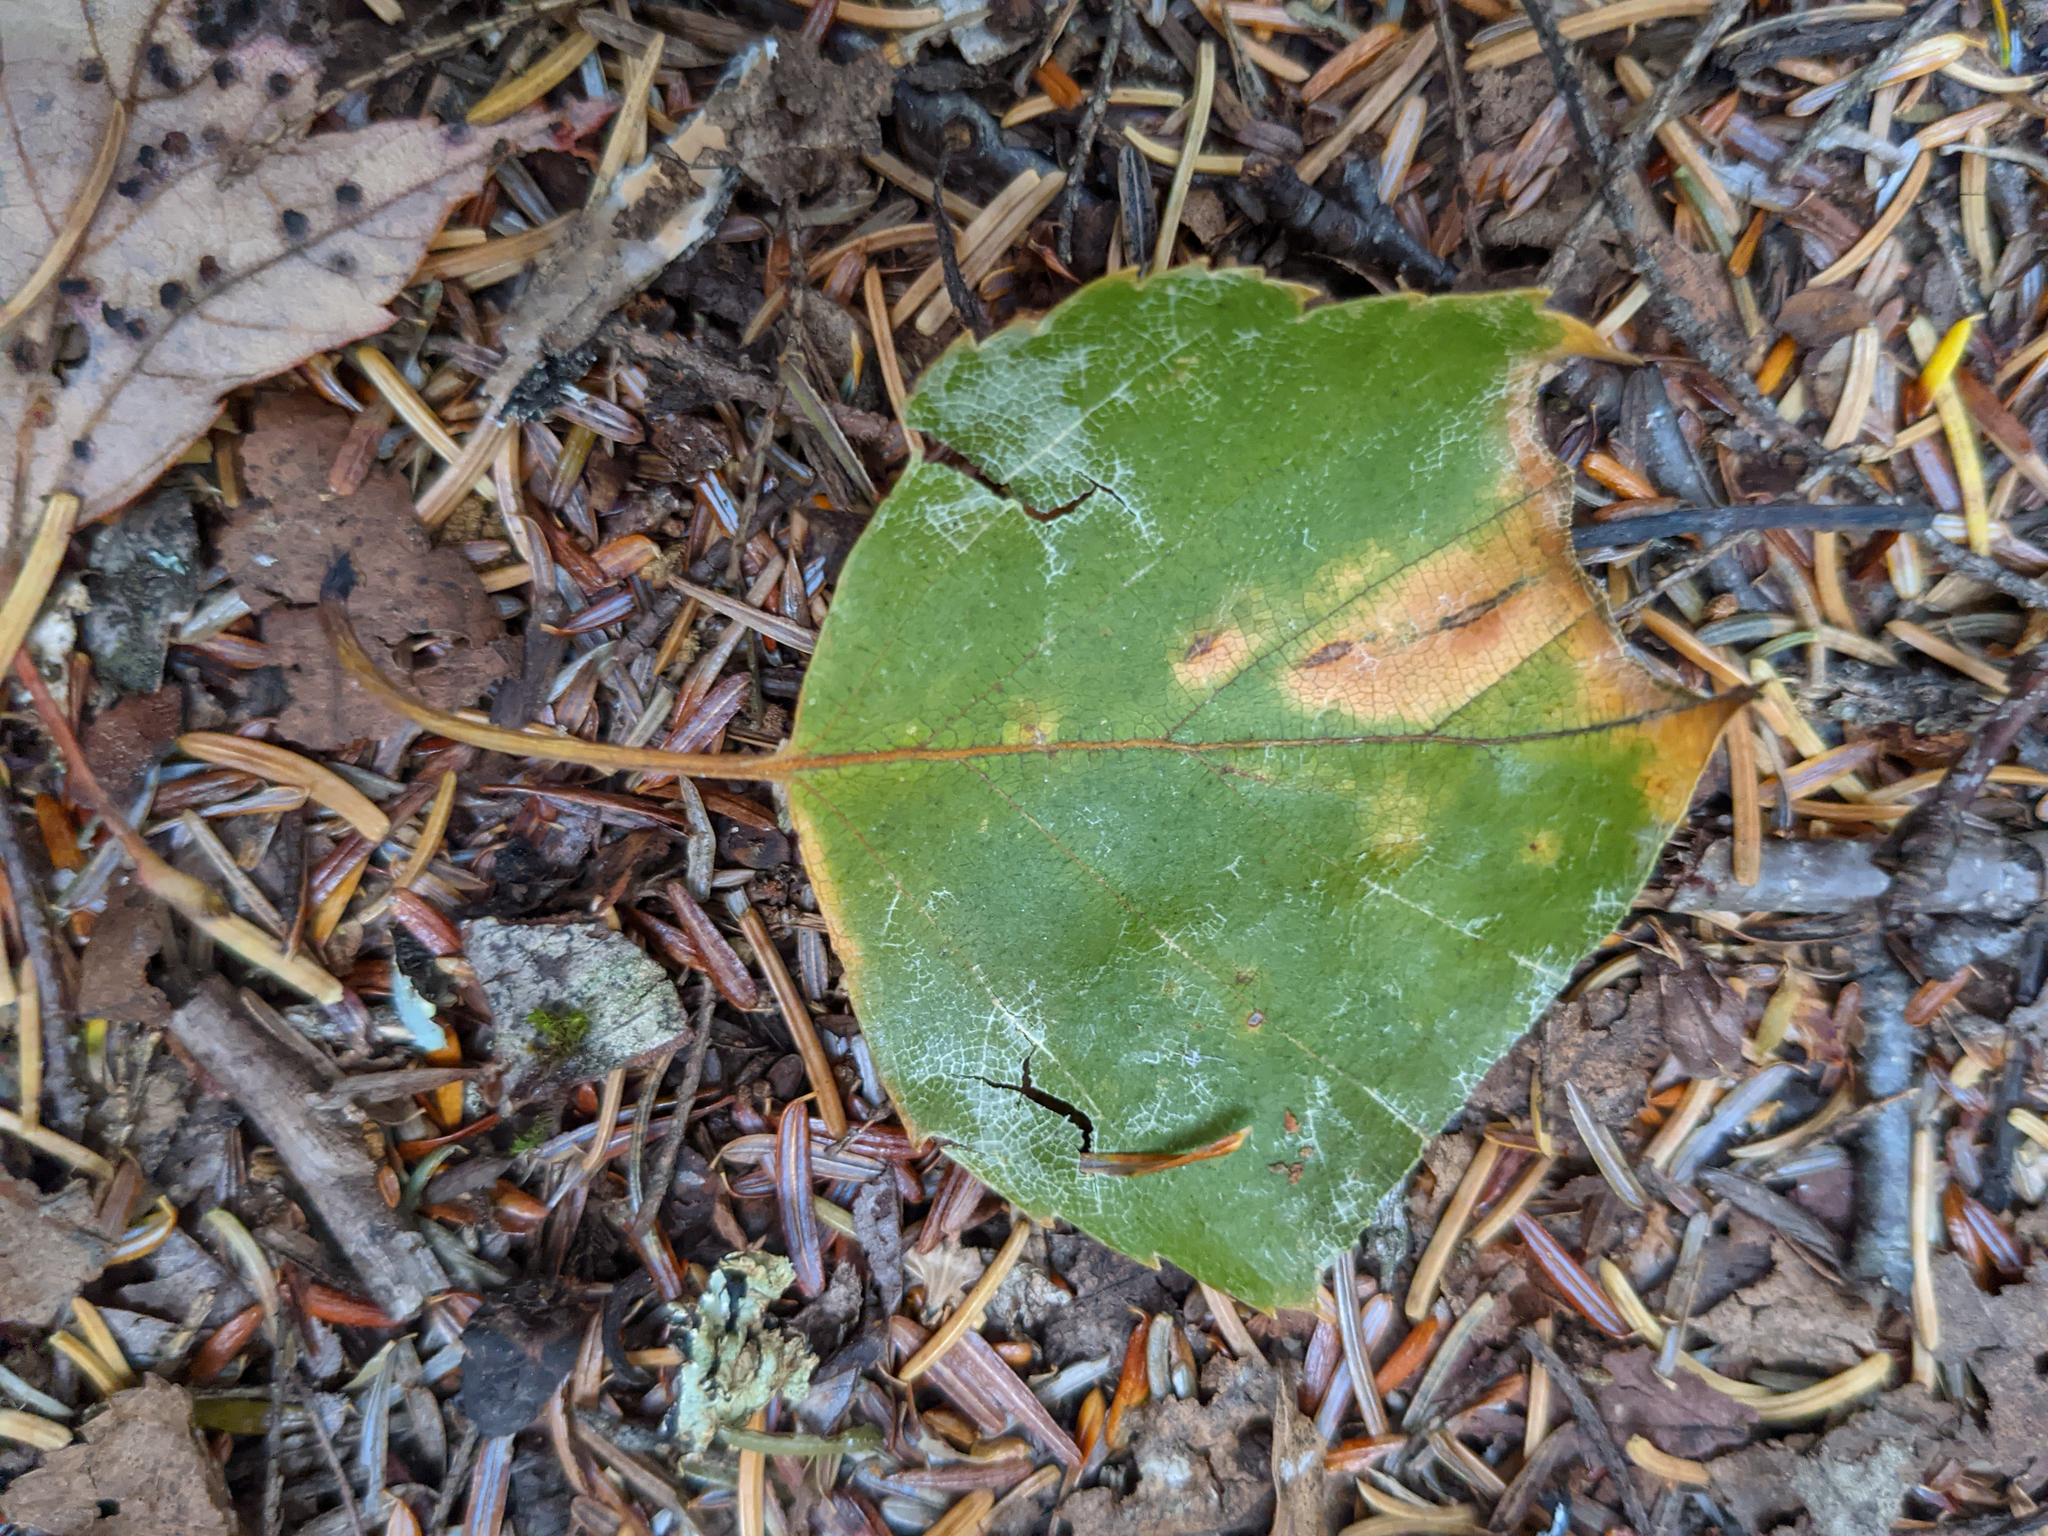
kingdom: Plantae
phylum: Tracheophyta
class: Magnoliopsida
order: Sapindales
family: Sapindaceae
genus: Acer
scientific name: Acer pensylvanicum
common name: Moosewood
